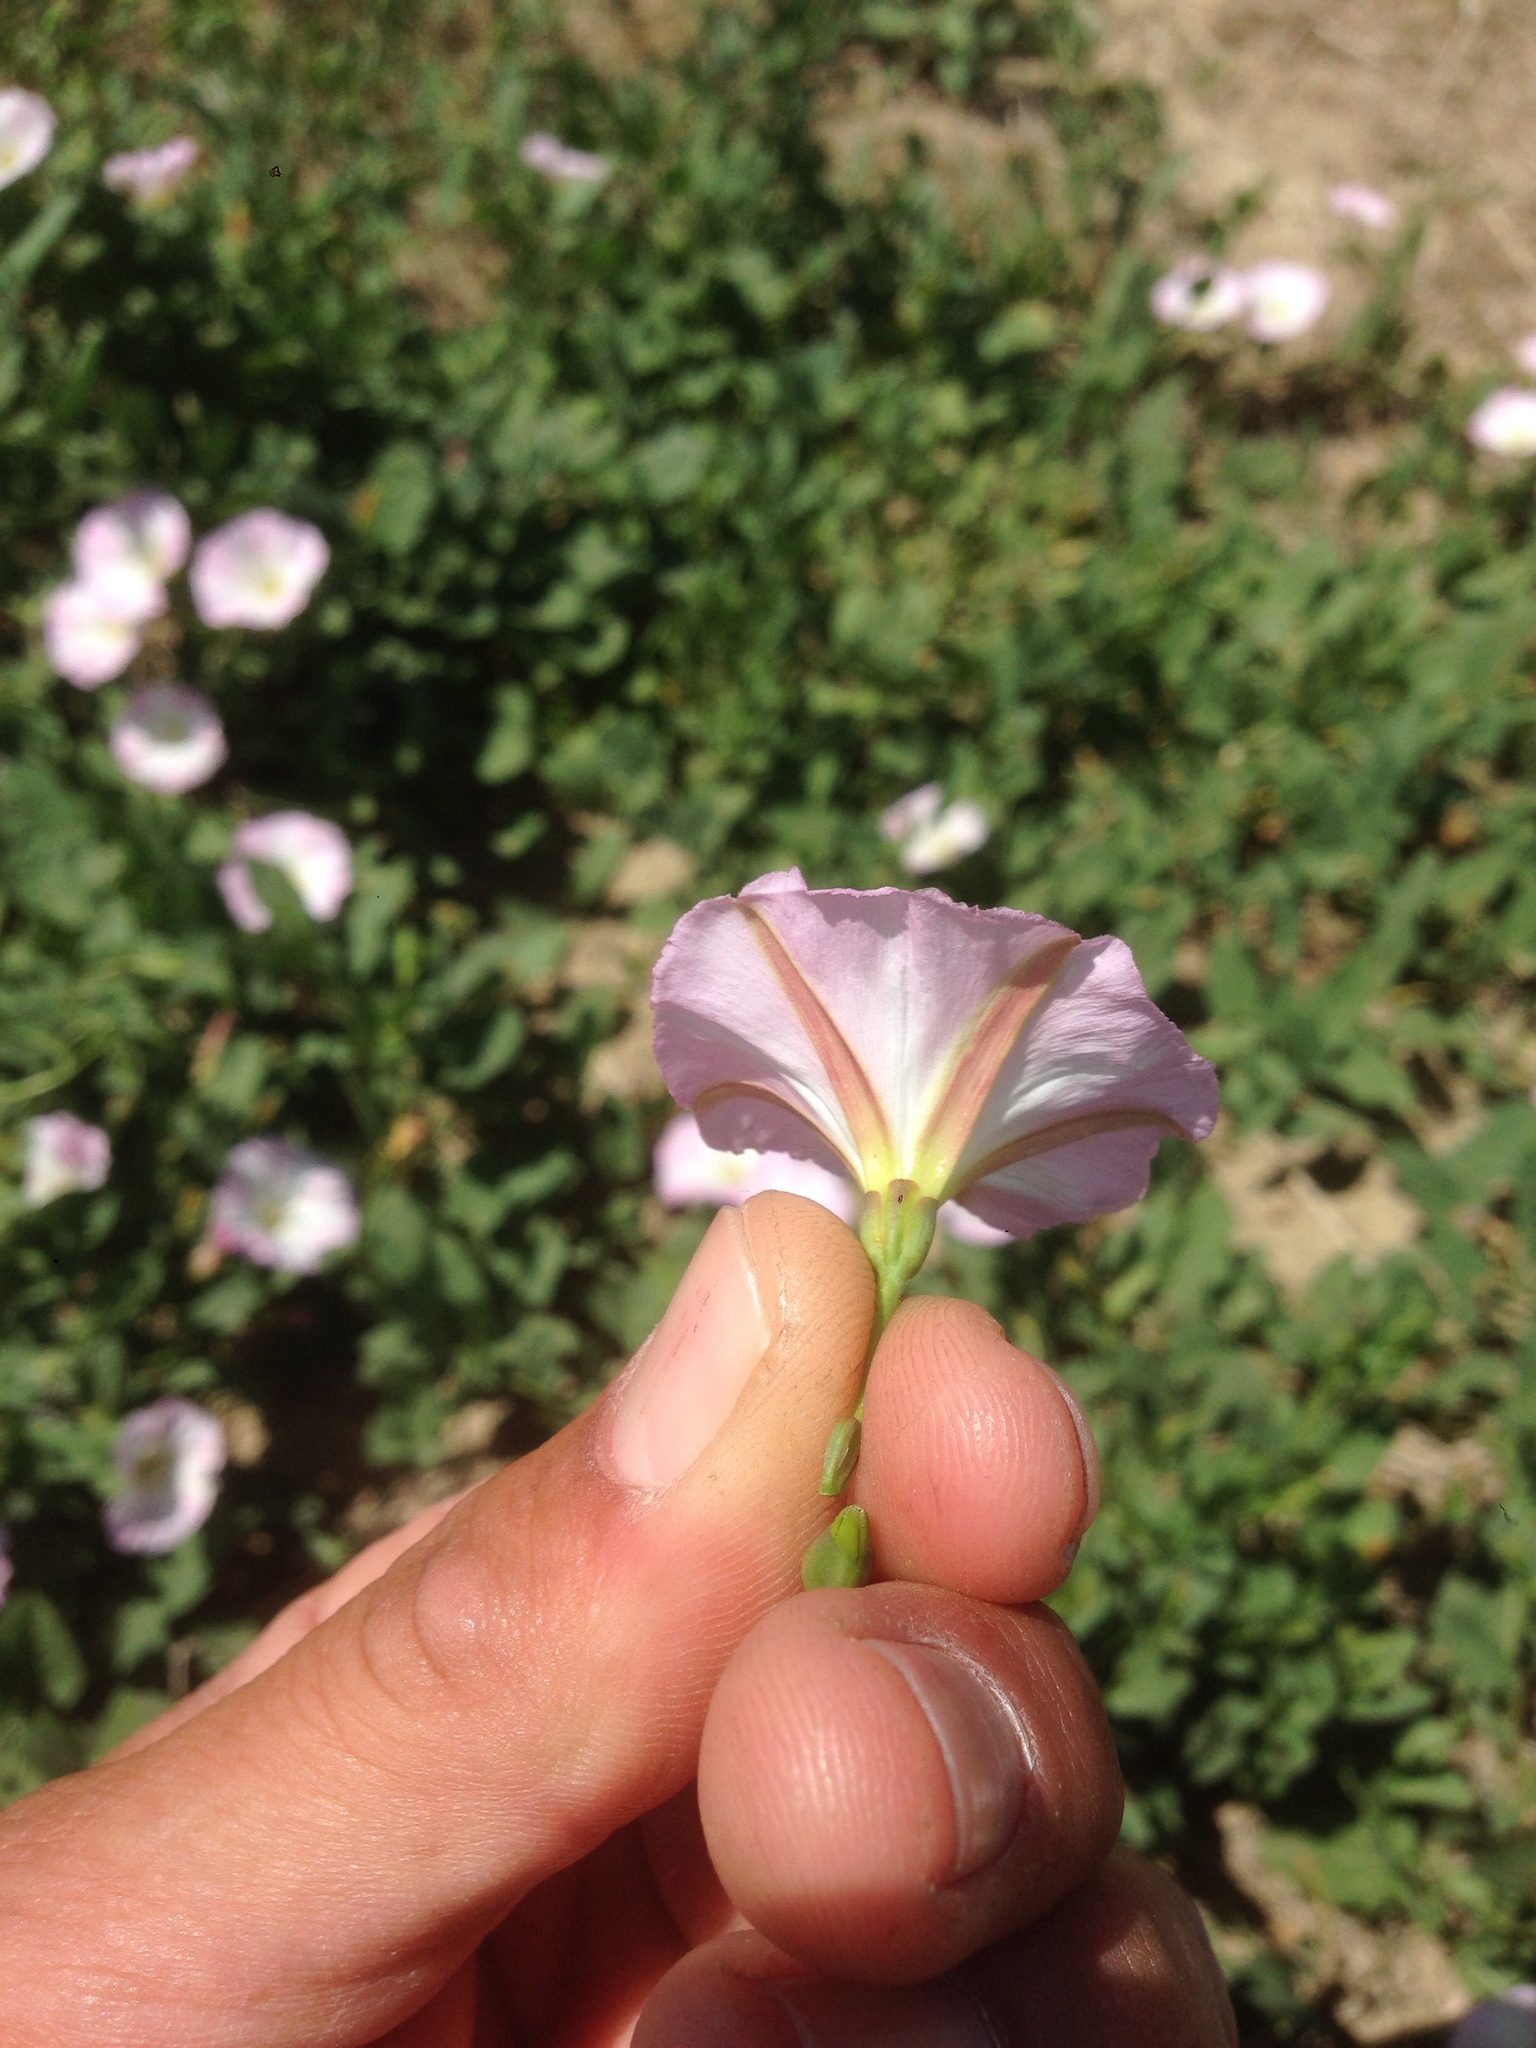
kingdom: Plantae
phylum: Tracheophyta
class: Magnoliopsida
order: Solanales
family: Convolvulaceae
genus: Convolvulus
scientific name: Convolvulus arvensis
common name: Field bindweed
